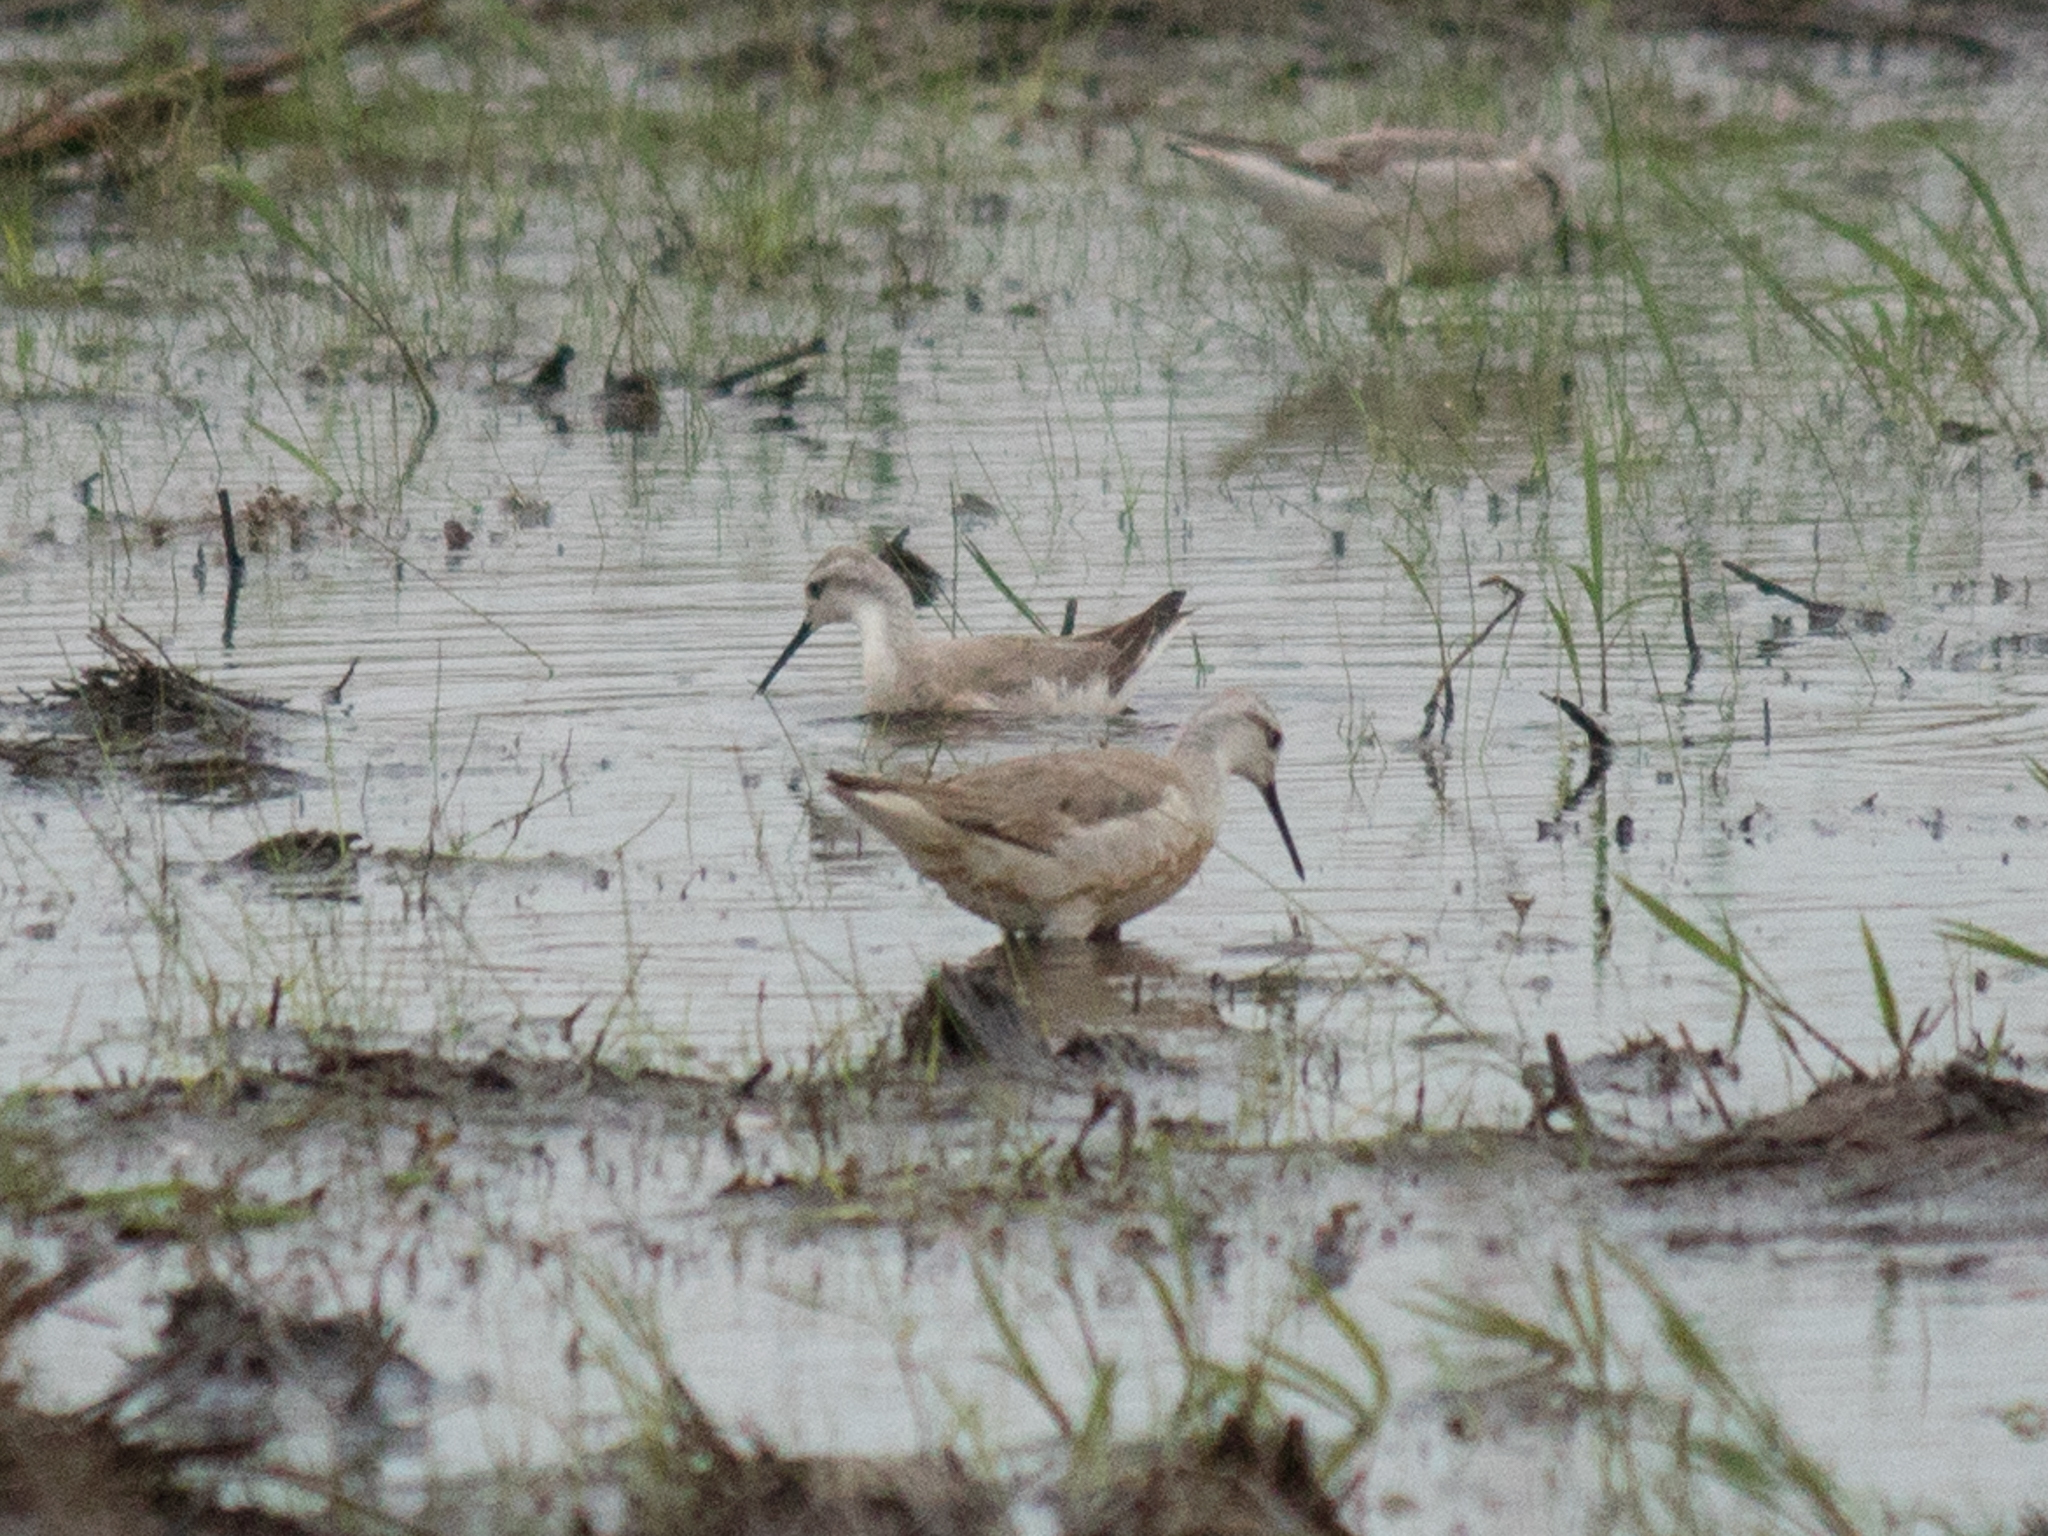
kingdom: Animalia
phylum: Chordata
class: Aves
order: Charadriiformes
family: Scolopacidae
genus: Phalaropus
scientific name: Phalaropus tricolor
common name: Wilson's phalarope
